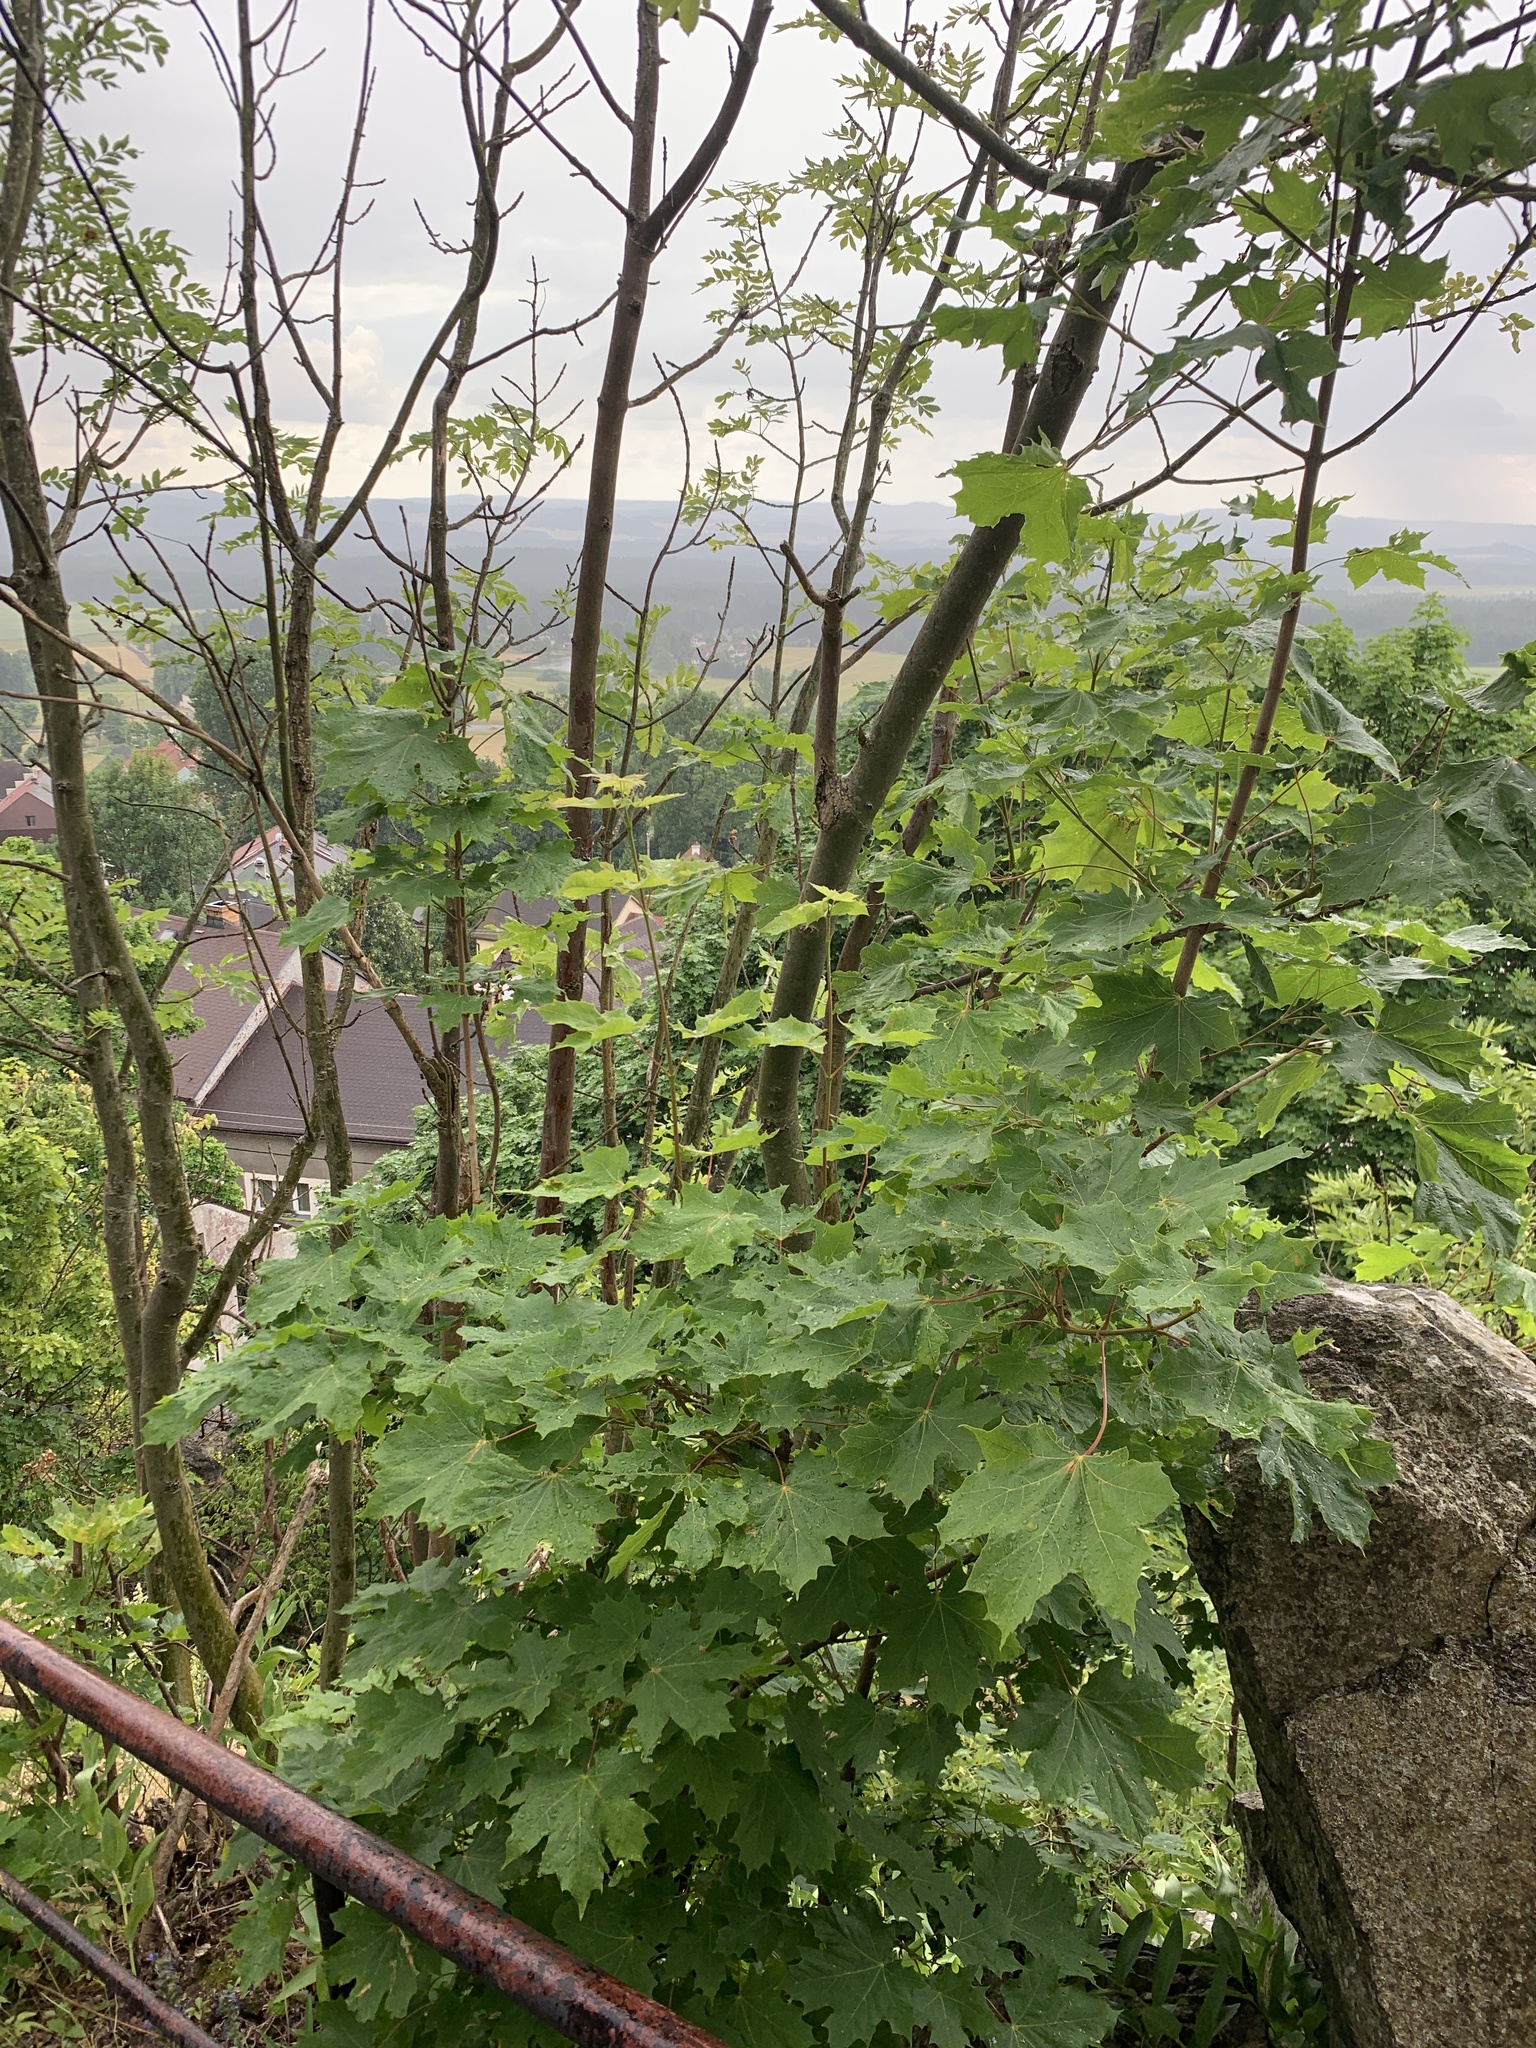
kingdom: Plantae
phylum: Tracheophyta
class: Magnoliopsida
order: Sapindales
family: Sapindaceae
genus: Acer
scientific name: Acer platanoides
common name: Norway maple
